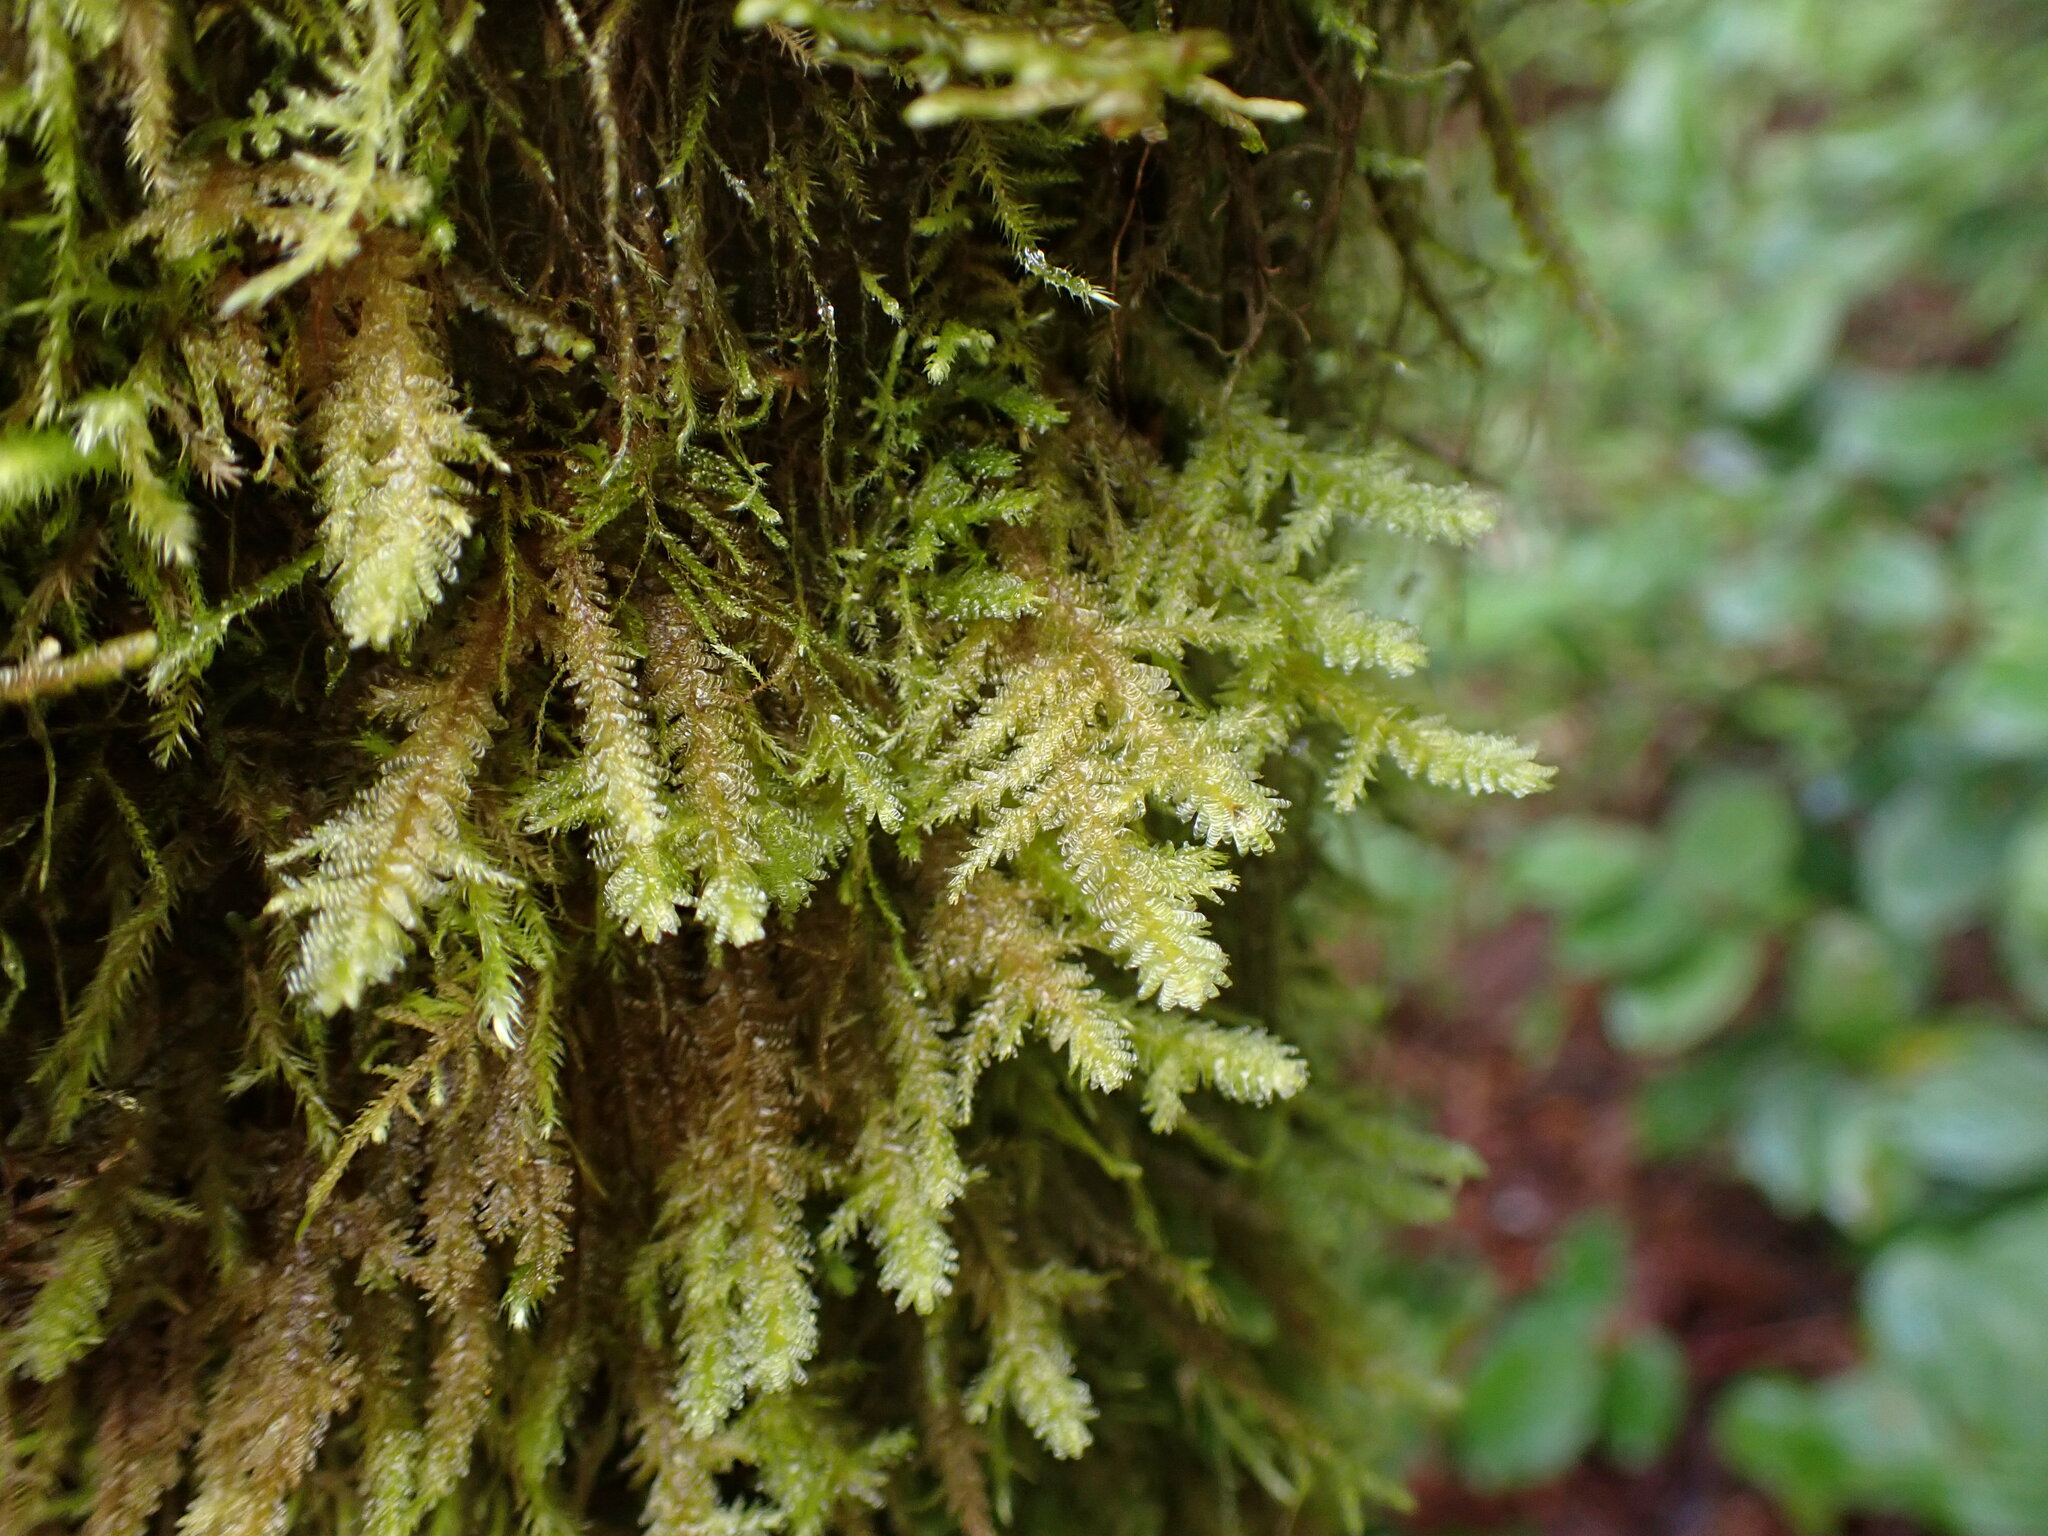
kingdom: Plantae
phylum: Bryophyta
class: Bryopsida
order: Hypnales
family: Neckeraceae
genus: Metaneckera
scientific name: Metaneckera menziesii
